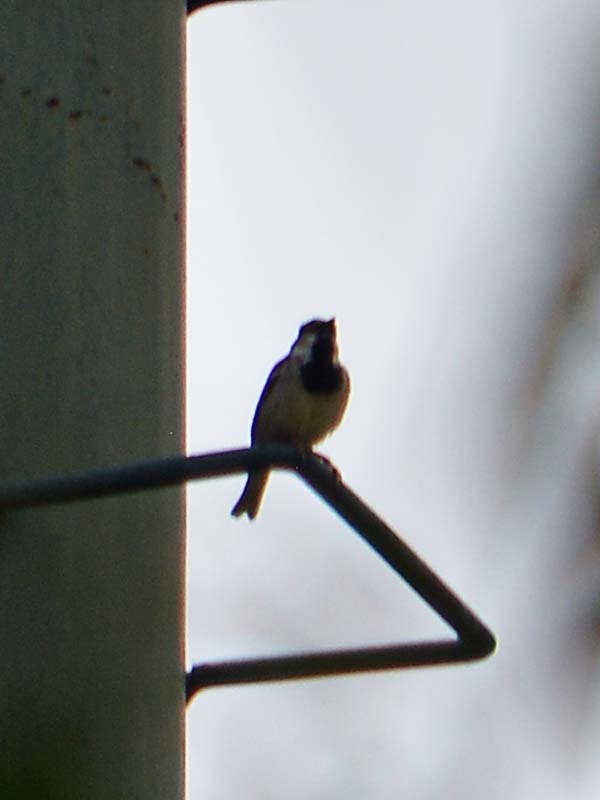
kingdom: Animalia
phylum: Chordata
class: Aves
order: Passeriformes
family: Passeridae
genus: Passer
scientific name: Passer domesticus
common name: House sparrow
